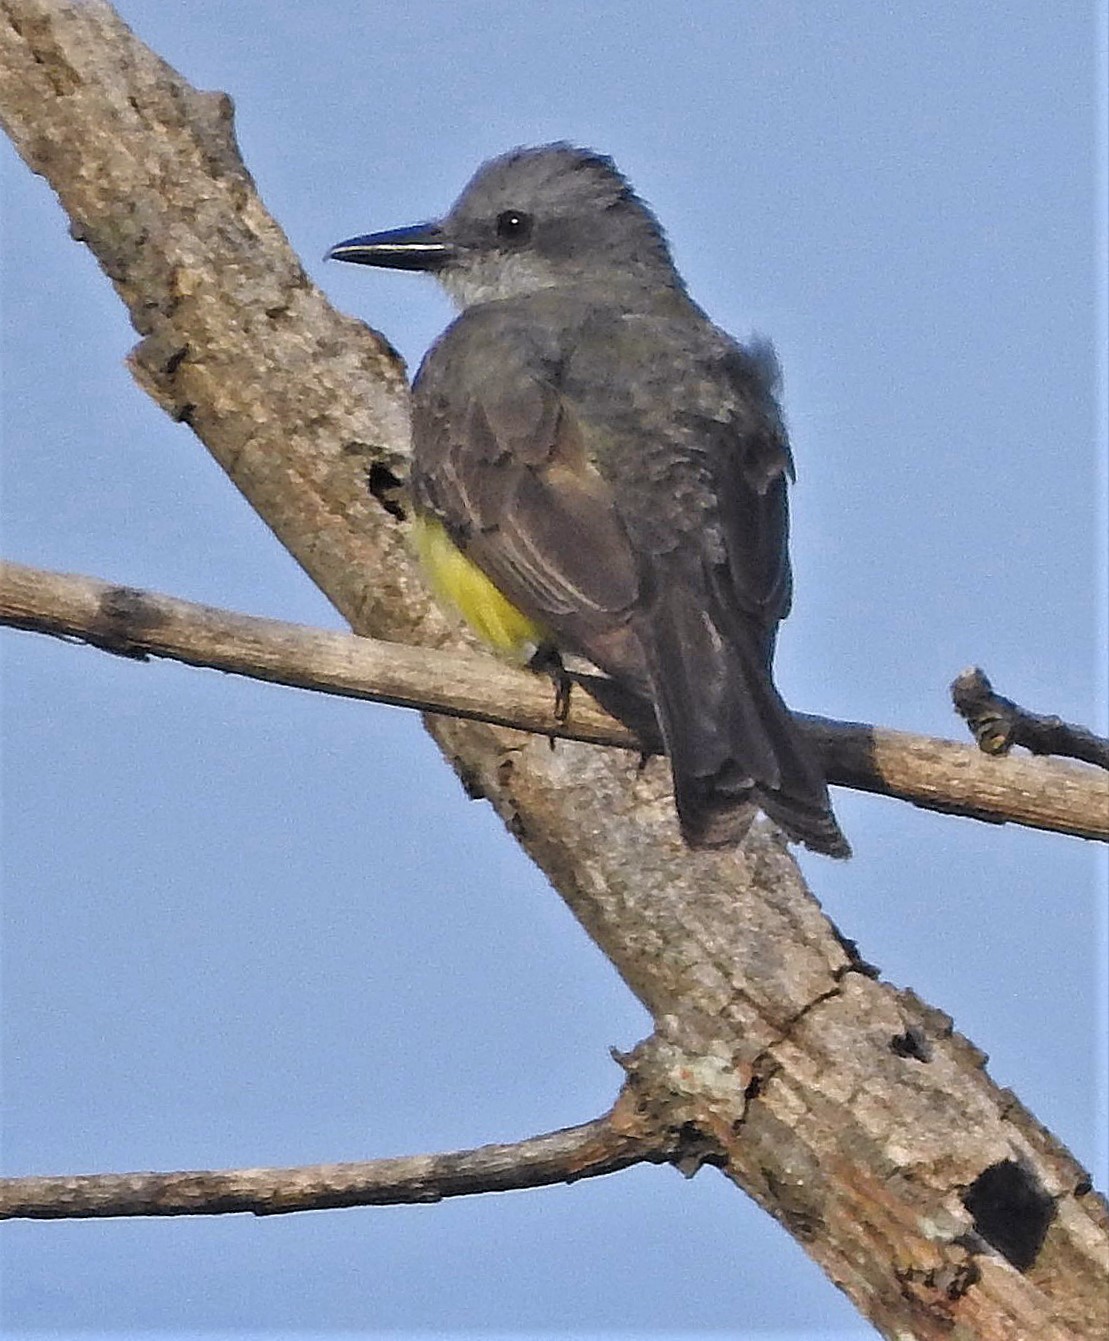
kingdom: Animalia
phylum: Chordata
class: Aves
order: Passeriformes
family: Tyrannidae
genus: Tyrannus
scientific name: Tyrannus melancholicus
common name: Tropical kingbird
